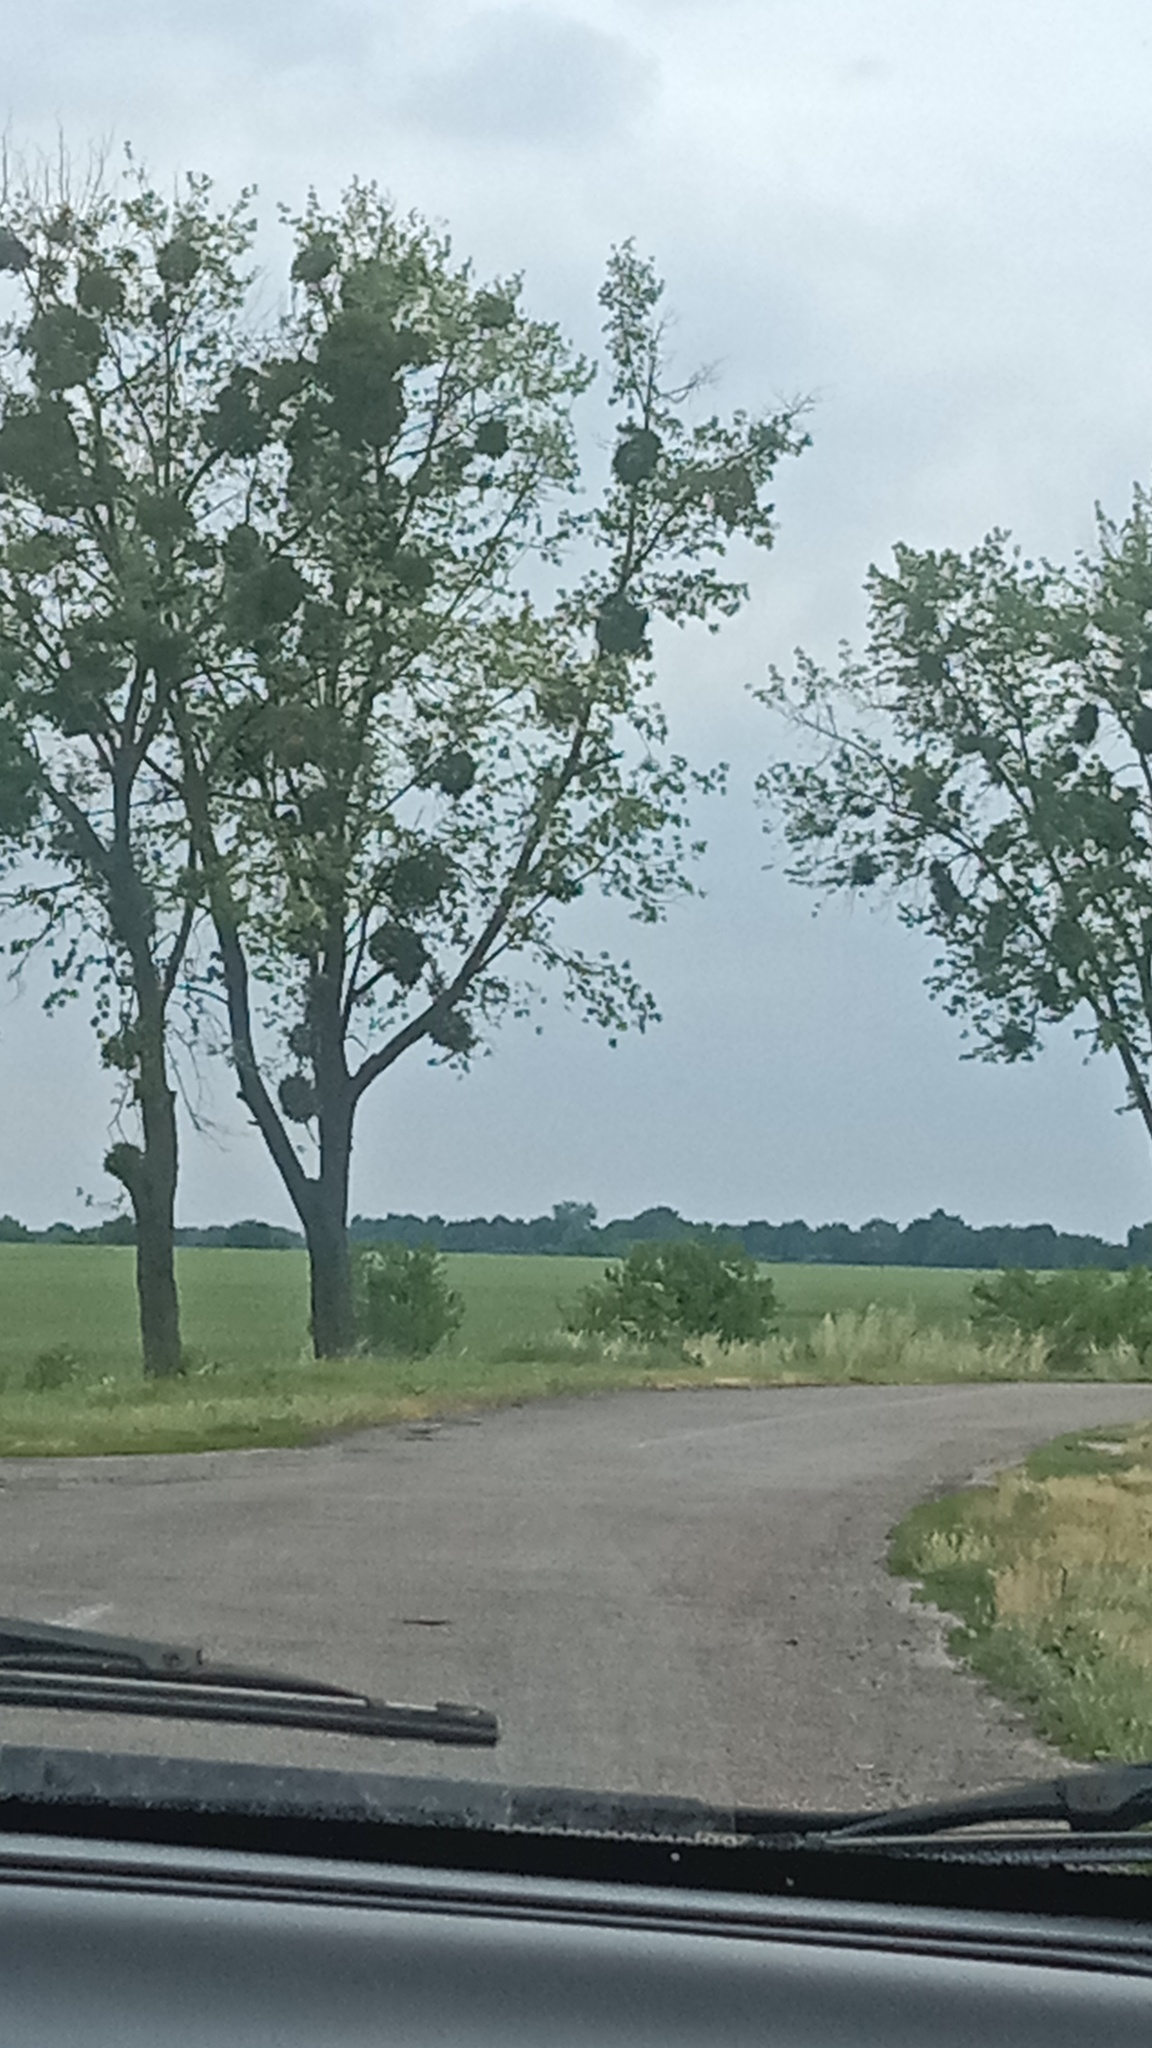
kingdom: Plantae
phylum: Tracheophyta
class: Magnoliopsida
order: Santalales
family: Viscaceae
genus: Viscum
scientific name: Viscum album
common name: Mistletoe
